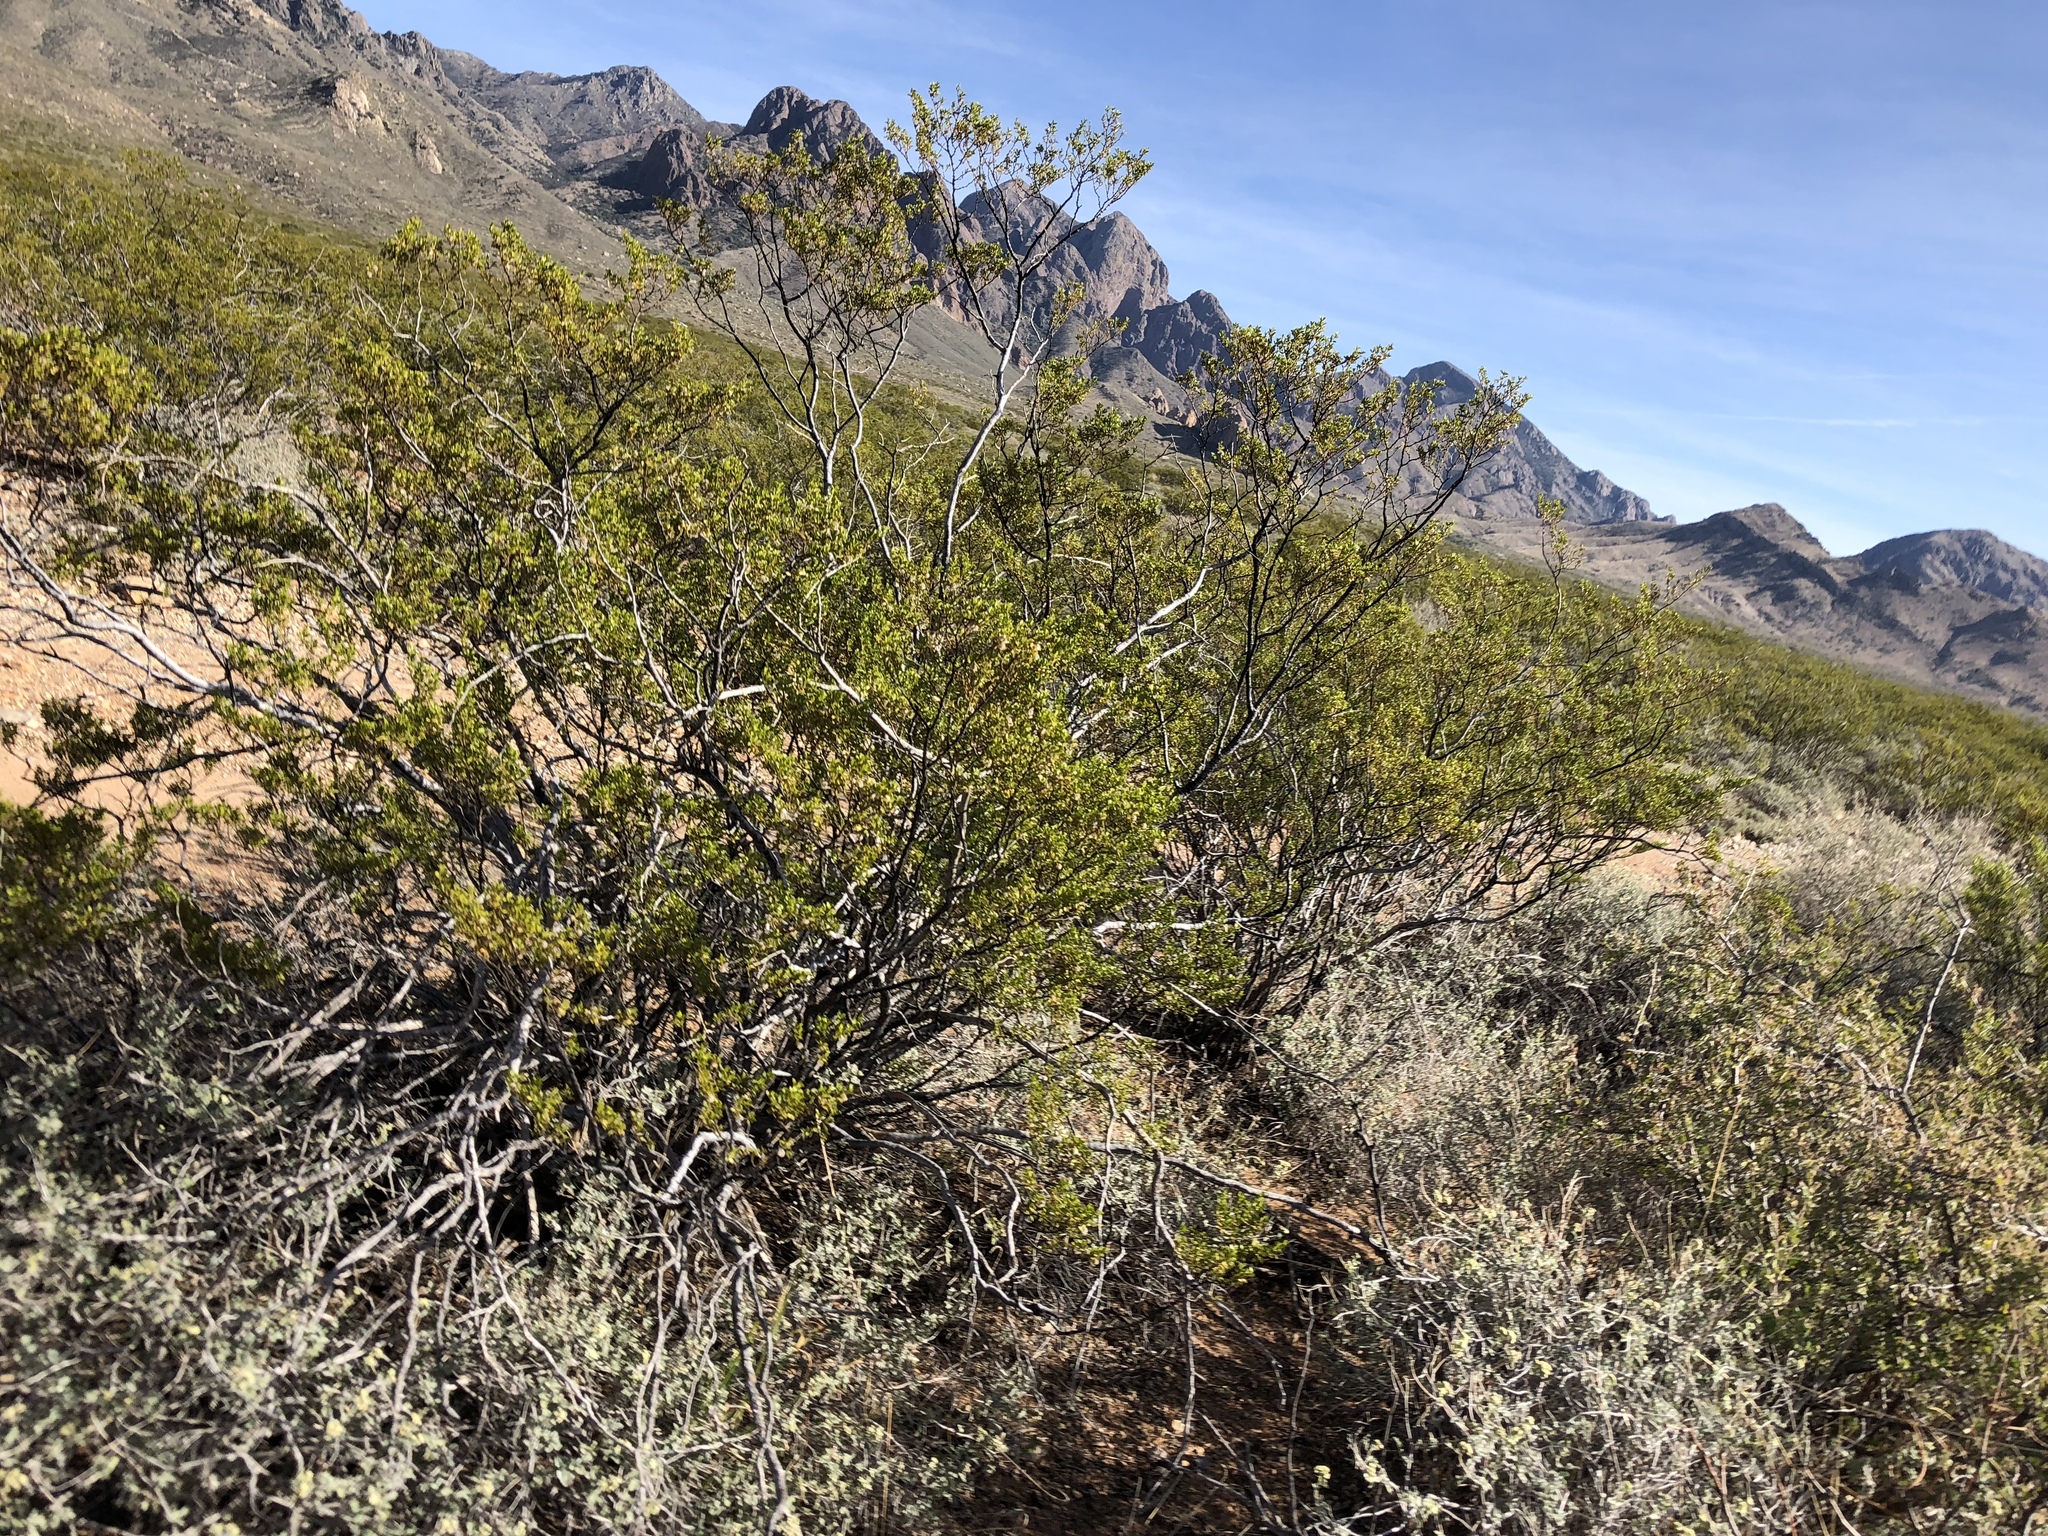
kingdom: Plantae
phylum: Tracheophyta
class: Magnoliopsida
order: Zygophyllales
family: Zygophyllaceae
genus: Larrea
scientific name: Larrea tridentata
